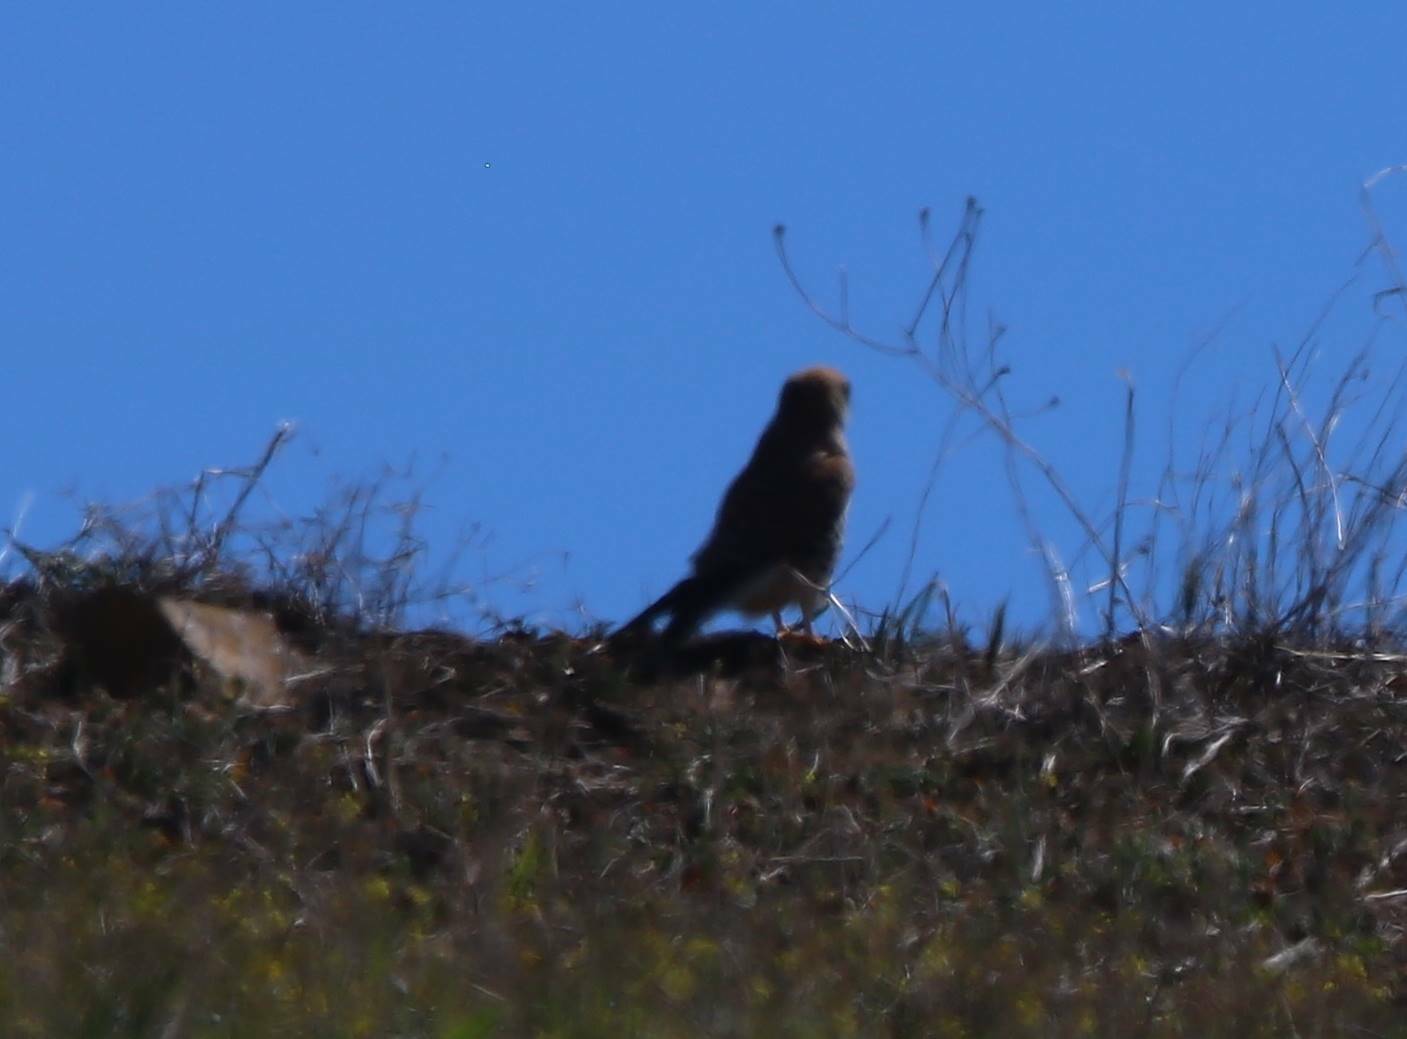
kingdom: Animalia
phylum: Chordata
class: Aves
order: Falconiformes
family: Falconidae
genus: Falco
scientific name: Falco tinnunculus
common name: Common kestrel
